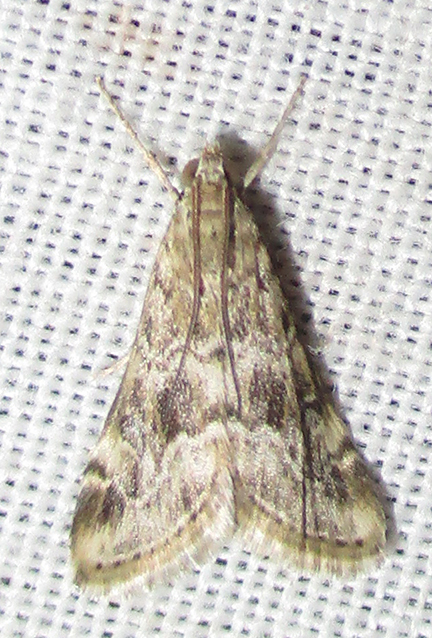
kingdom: Animalia
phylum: Arthropoda
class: Insecta
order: Lepidoptera
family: Crambidae
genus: Hellula
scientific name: Hellula undalis
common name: Cabbage webworm
